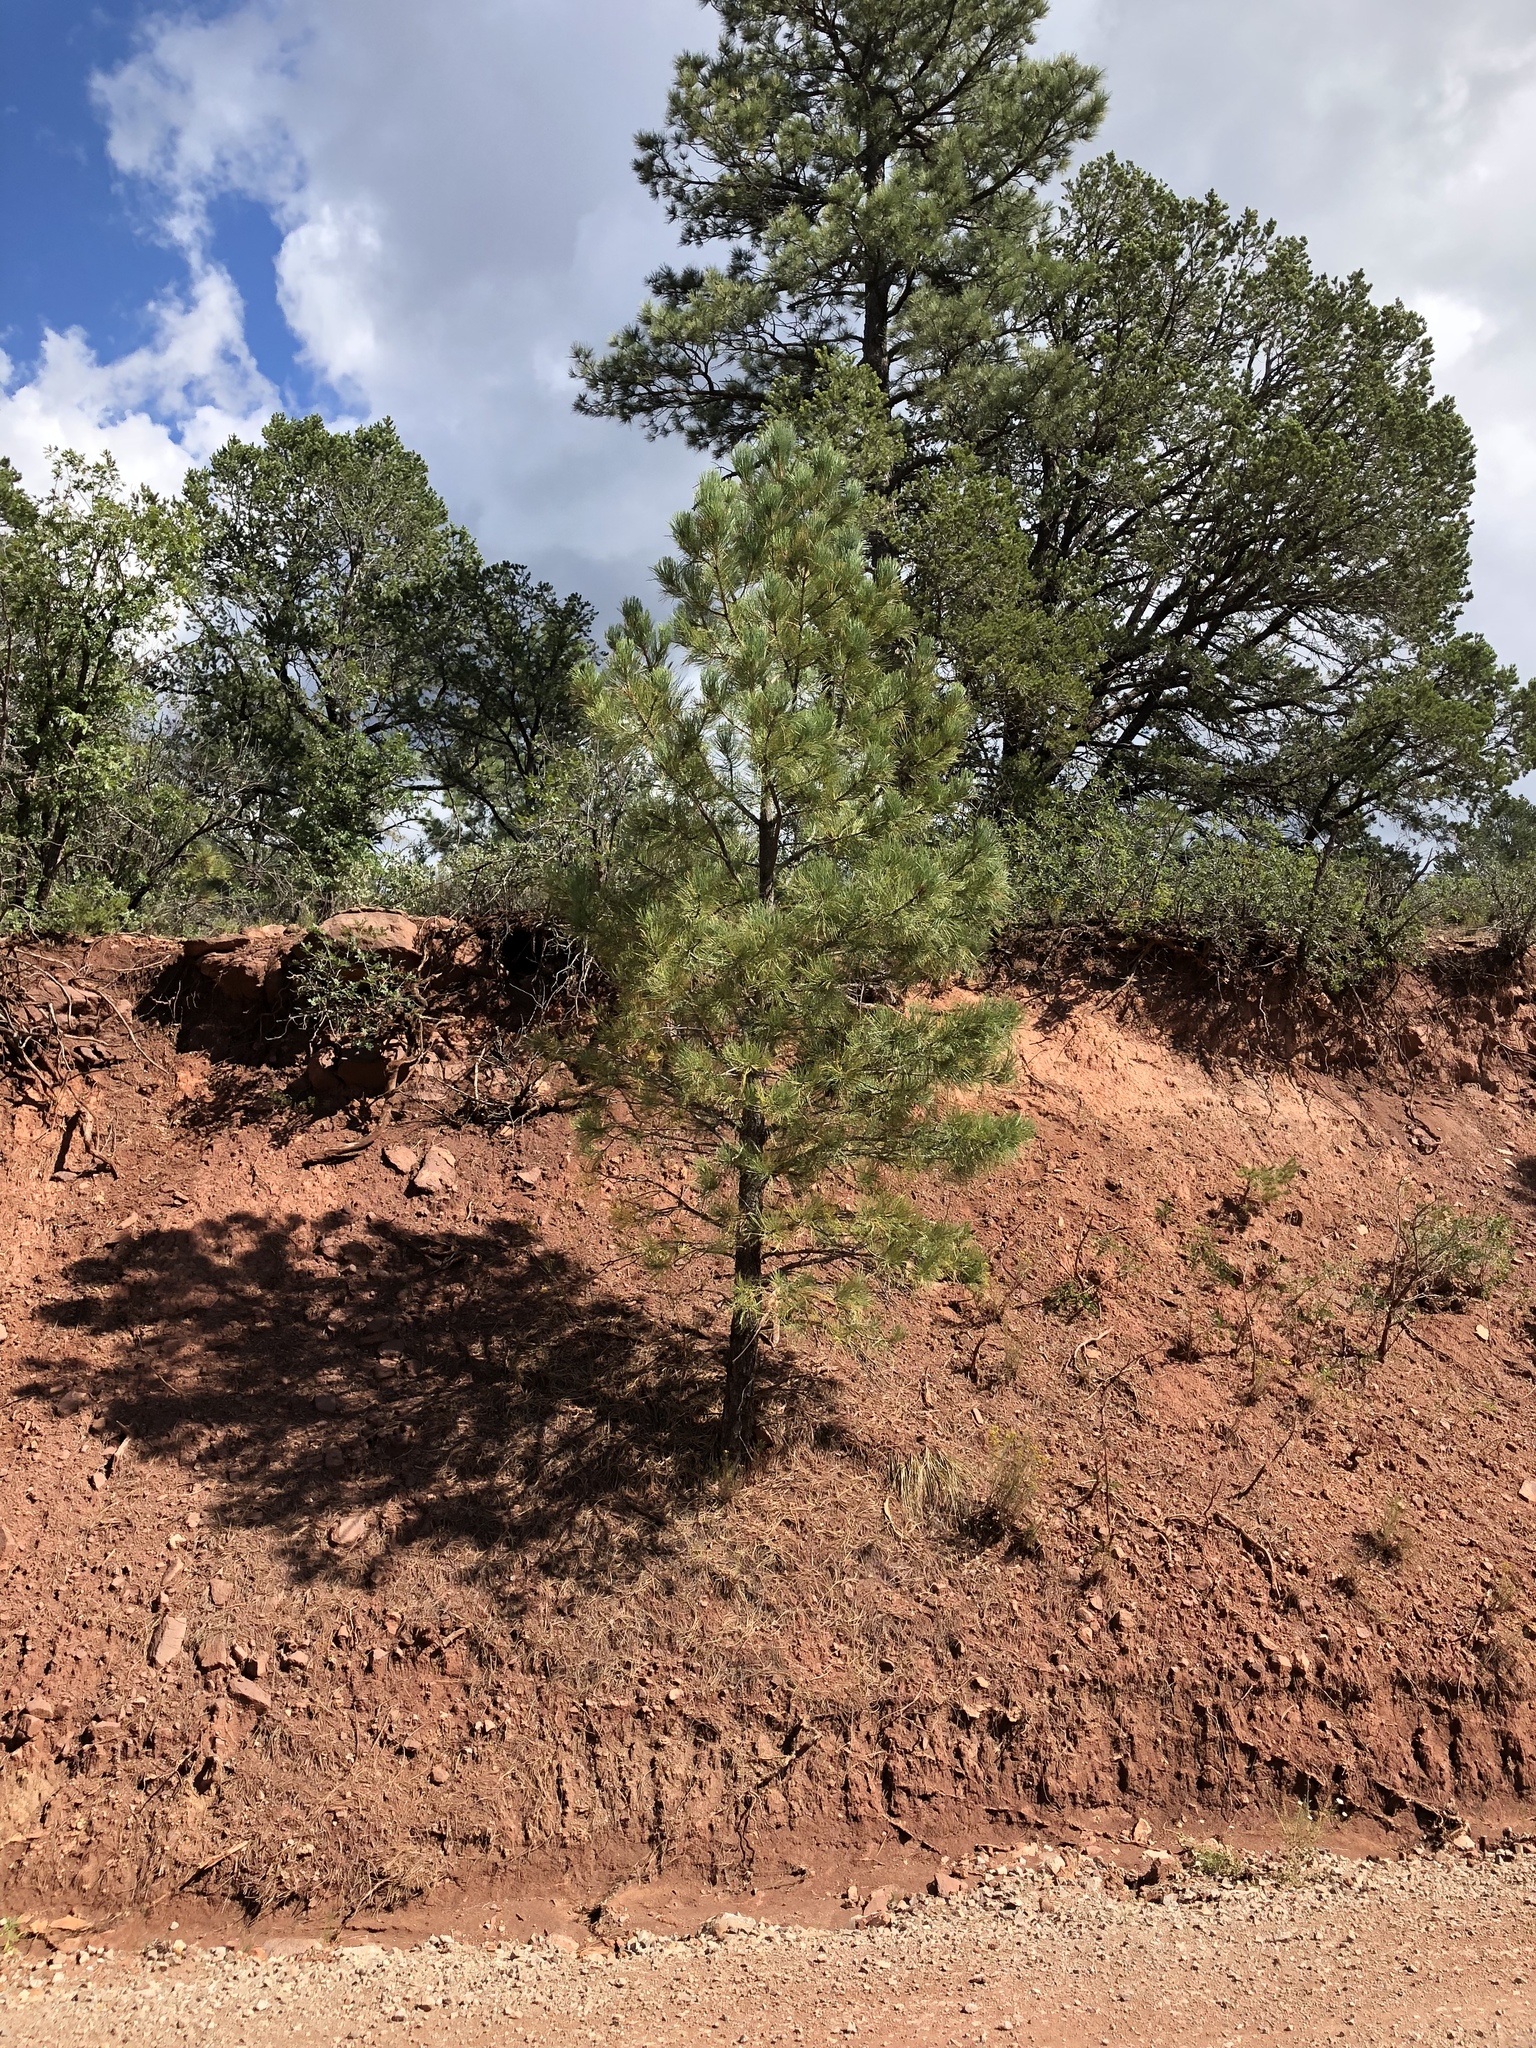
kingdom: Plantae
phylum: Tracheophyta
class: Pinopsida
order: Pinales
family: Pinaceae
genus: Pinus
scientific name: Pinus ponderosa
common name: Western yellow-pine
